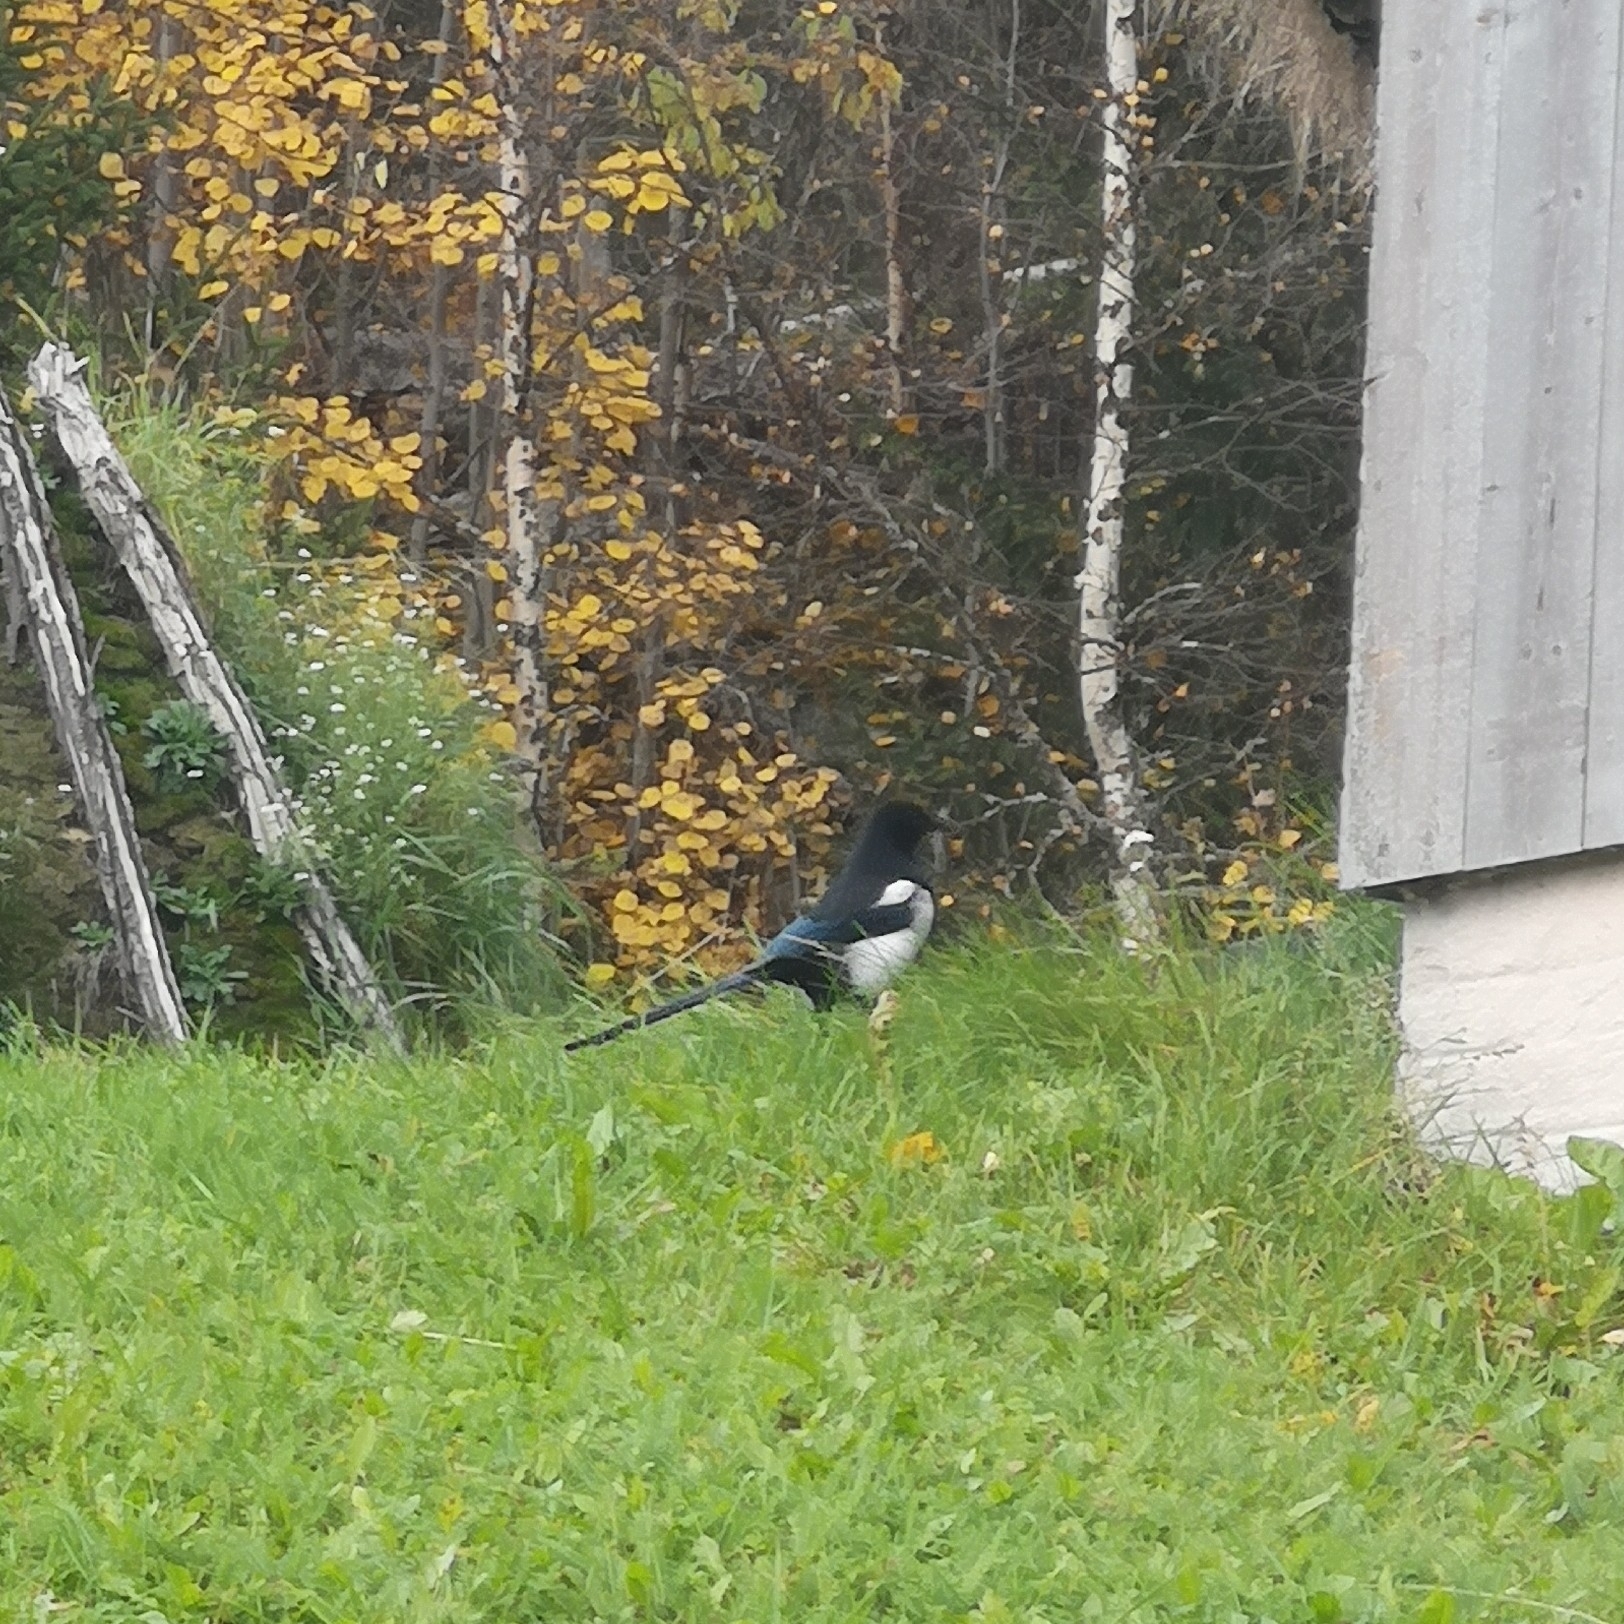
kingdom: Animalia
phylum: Chordata
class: Aves
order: Passeriformes
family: Corvidae
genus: Pica
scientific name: Pica pica
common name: Eurasian magpie
